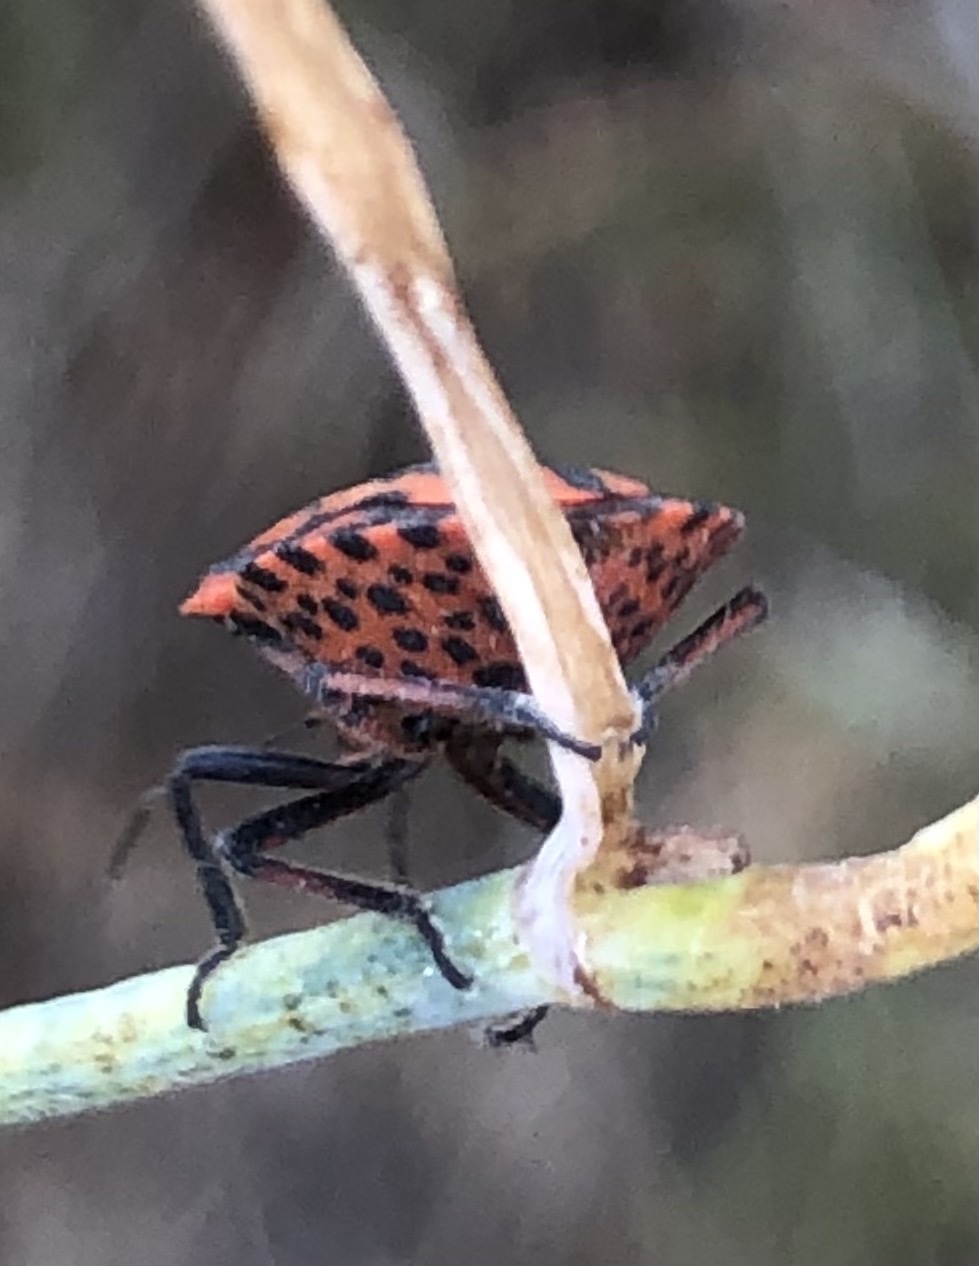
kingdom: Animalia
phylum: Arthropoda
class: Insecta
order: Hemiptera
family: Pentatomidae
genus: Graphosoma
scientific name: Graphosoma italicum
